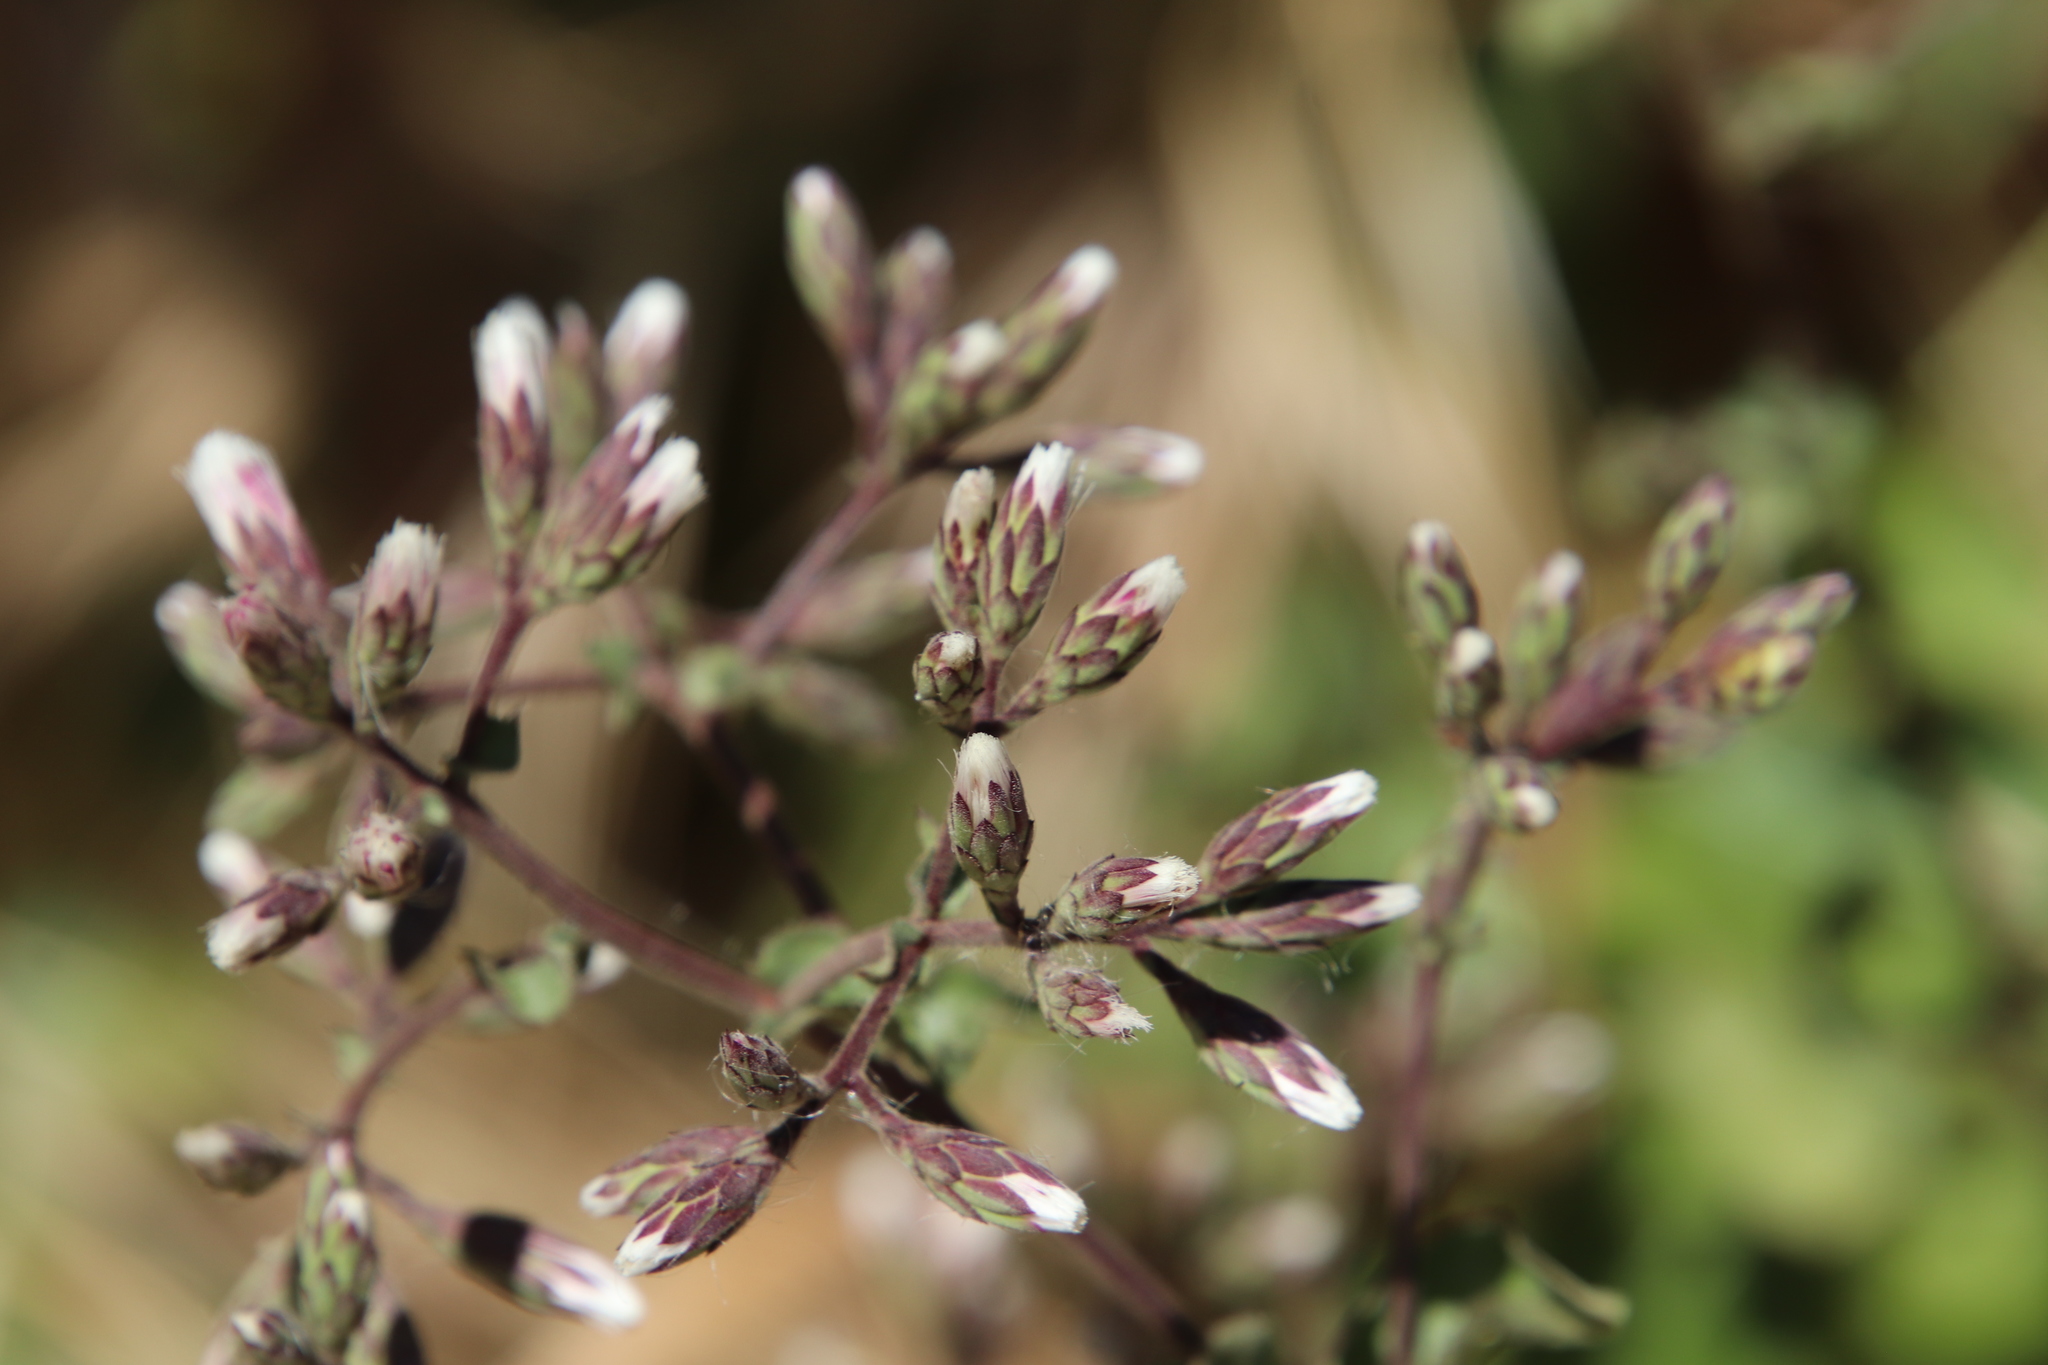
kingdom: Plantae
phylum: Tracheophyta
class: Magnoliopsida
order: Asterales
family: Asteraceae
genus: Acourtia
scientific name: Acourtia microcephala
